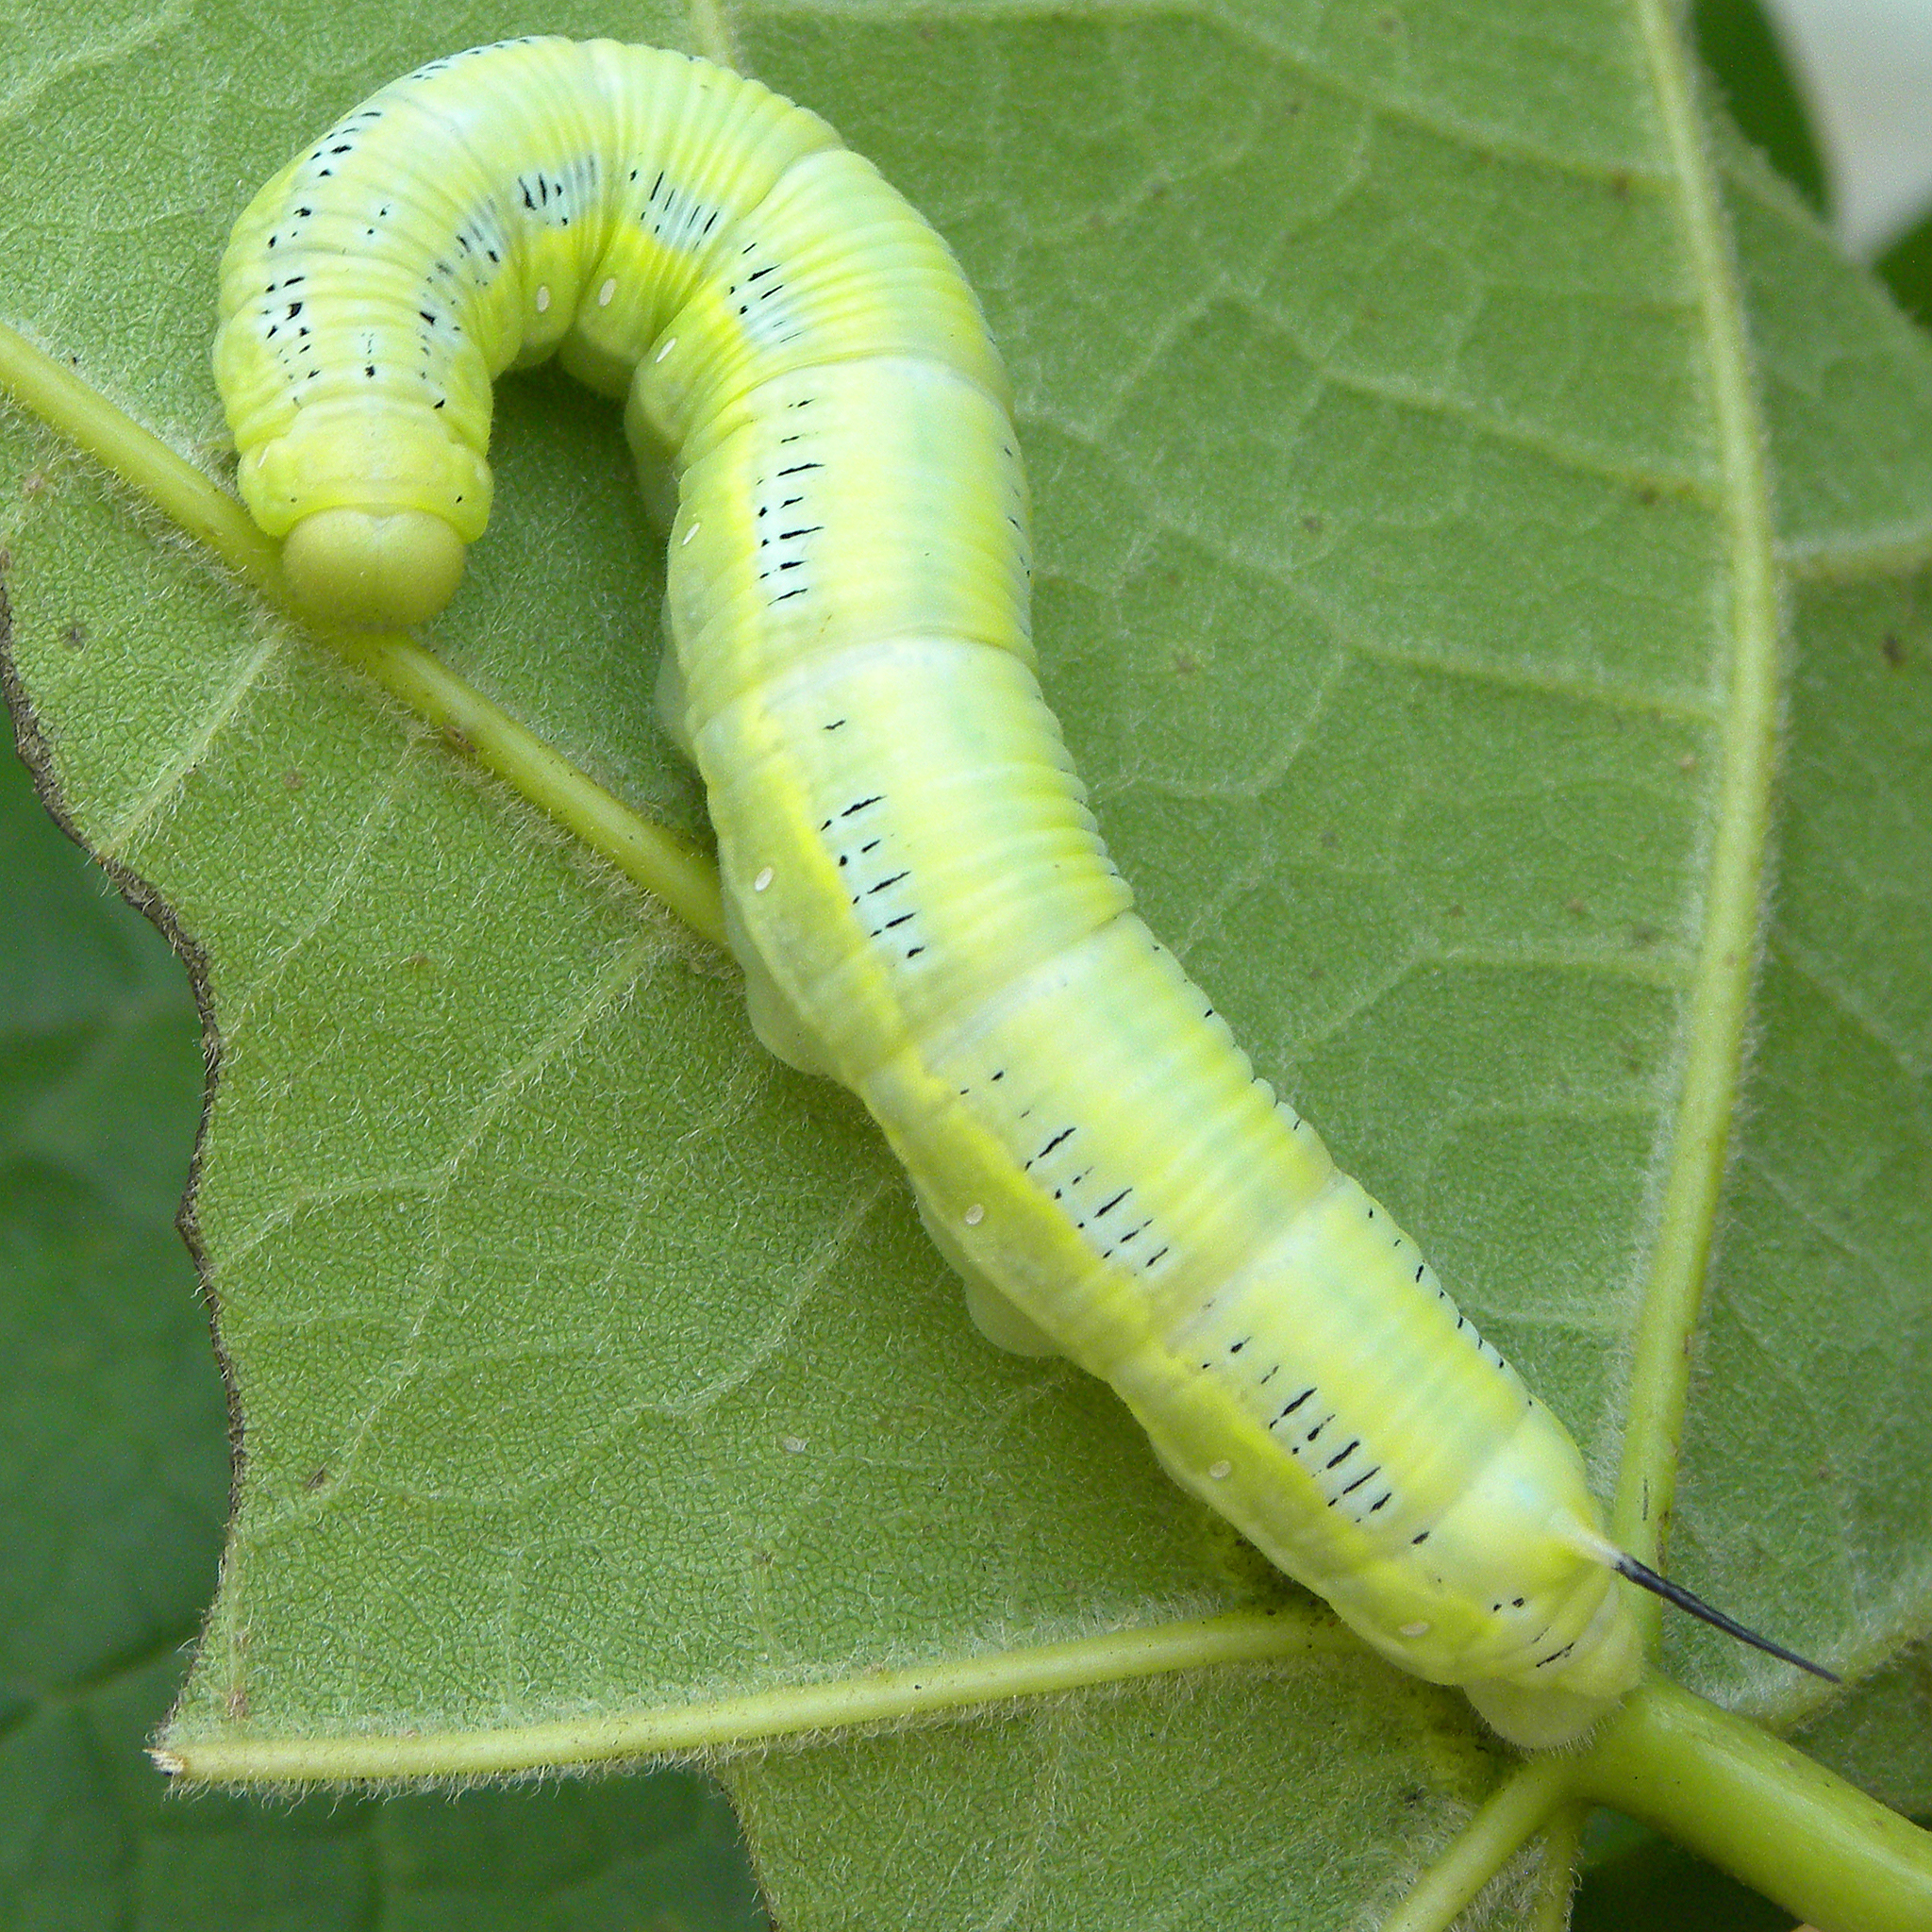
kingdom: Animalia
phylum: Arthropoda
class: Insecta
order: Lepidoptera
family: Sphingidae
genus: Ceratomia
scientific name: Ceratomia catalpae
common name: Catalpa hornworm
